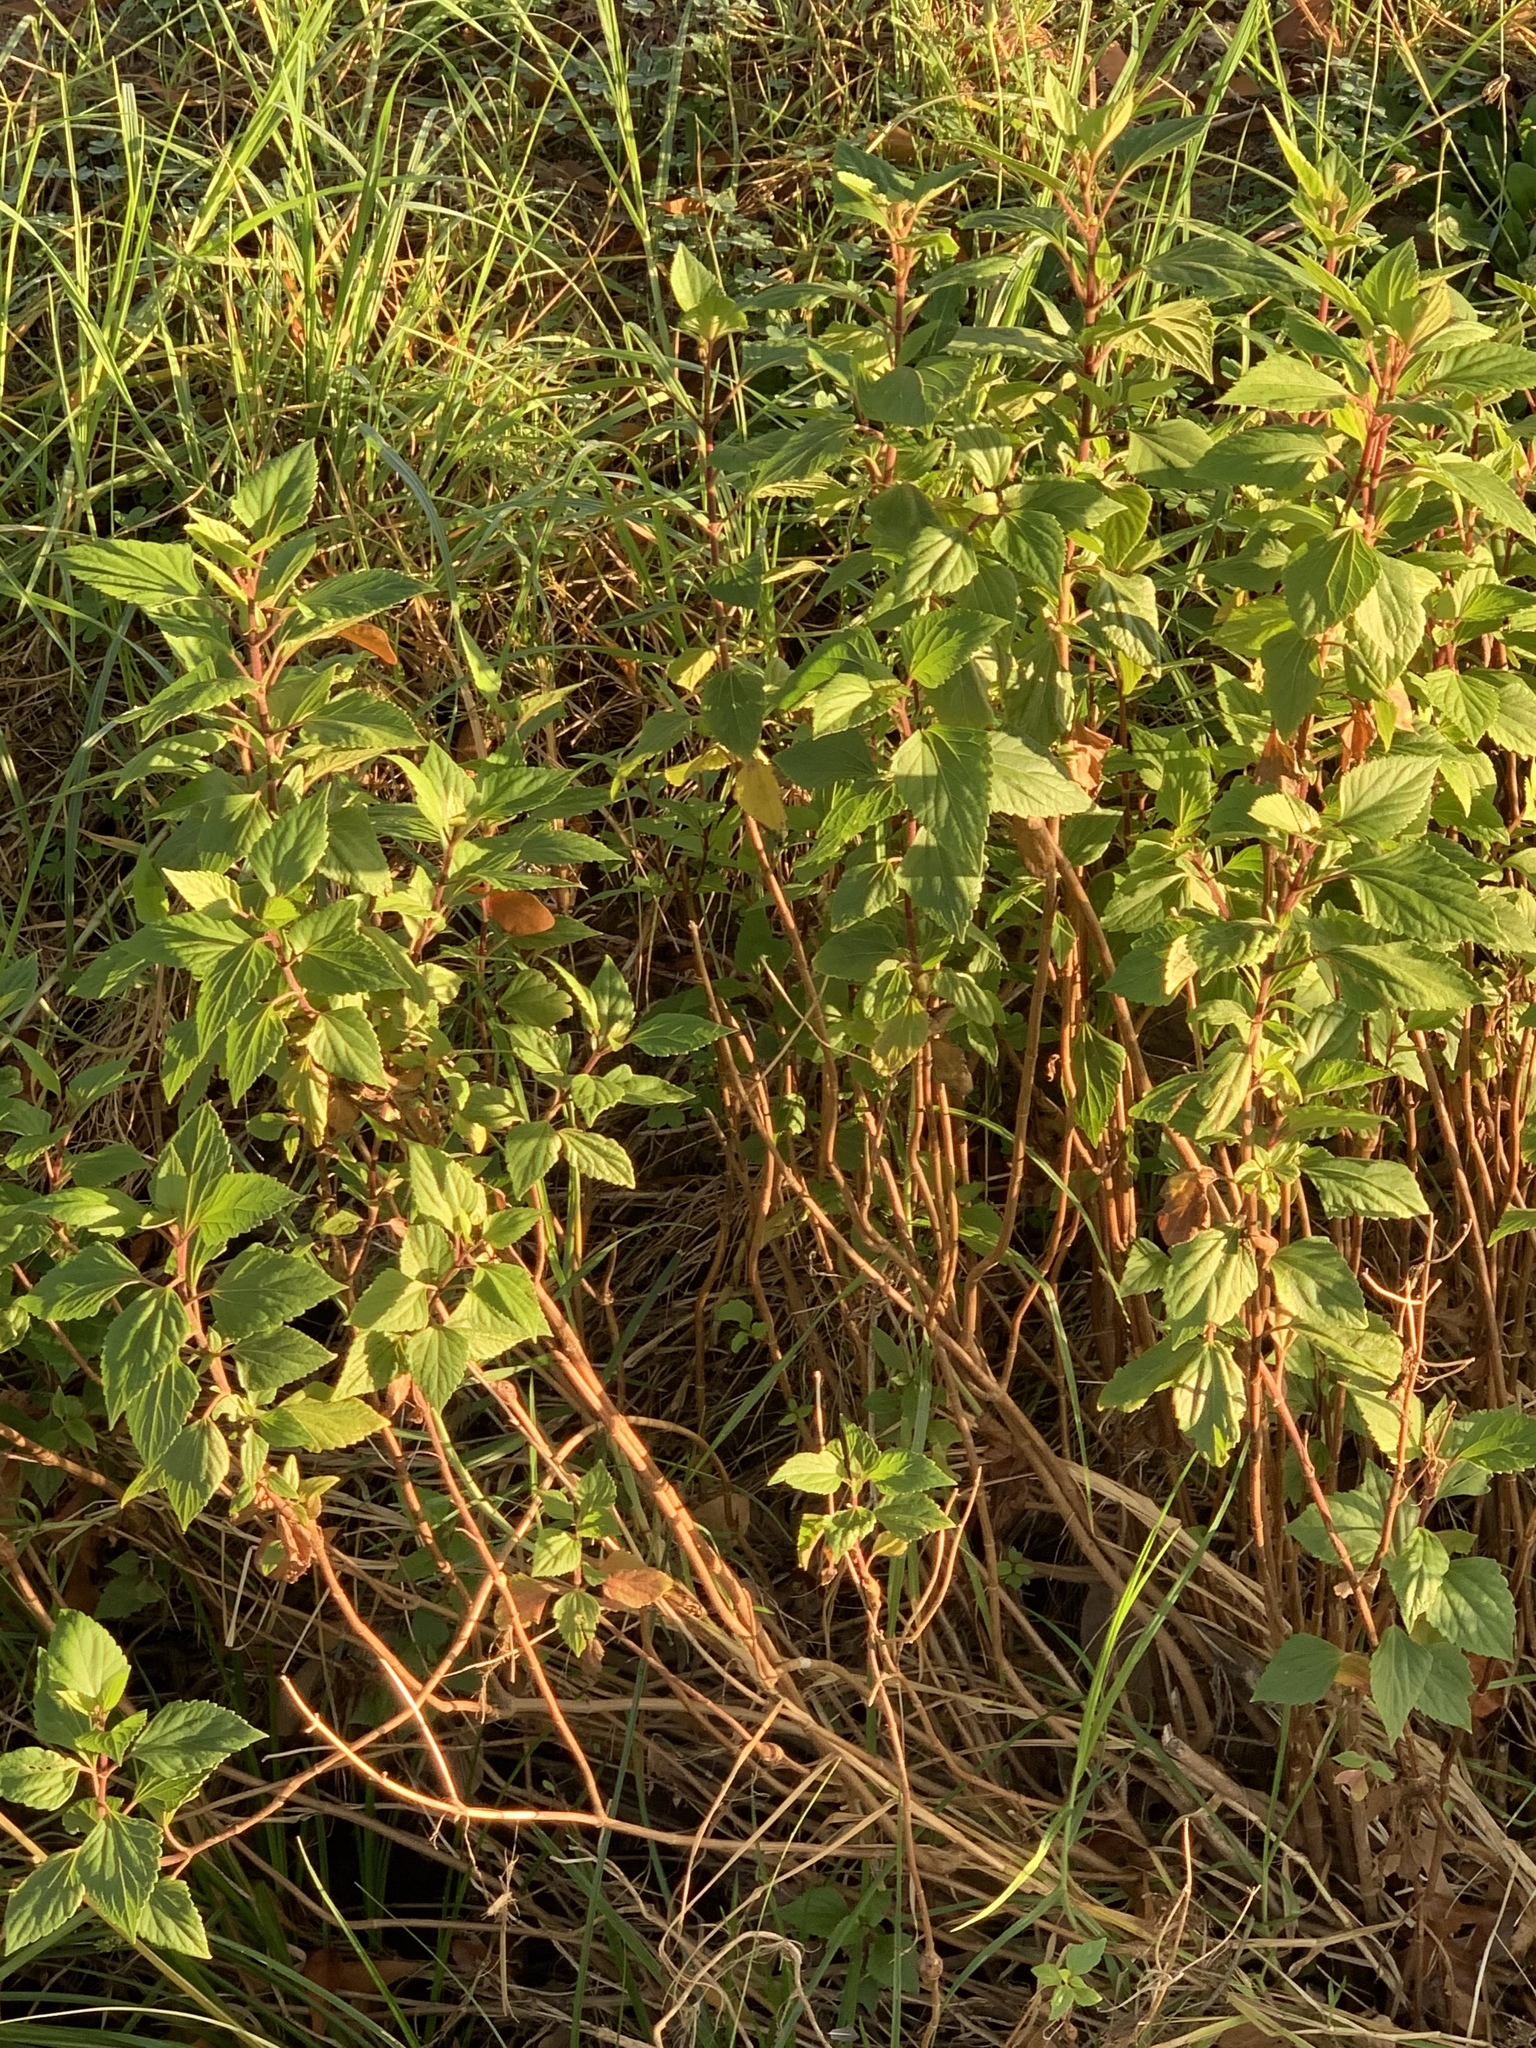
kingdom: Plantae
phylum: Tracheophyta
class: Magnoliopsida
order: Asterales
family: Asteraceae
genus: Ageratina
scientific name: Ageratina adenophora
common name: Sticky snakeroot
